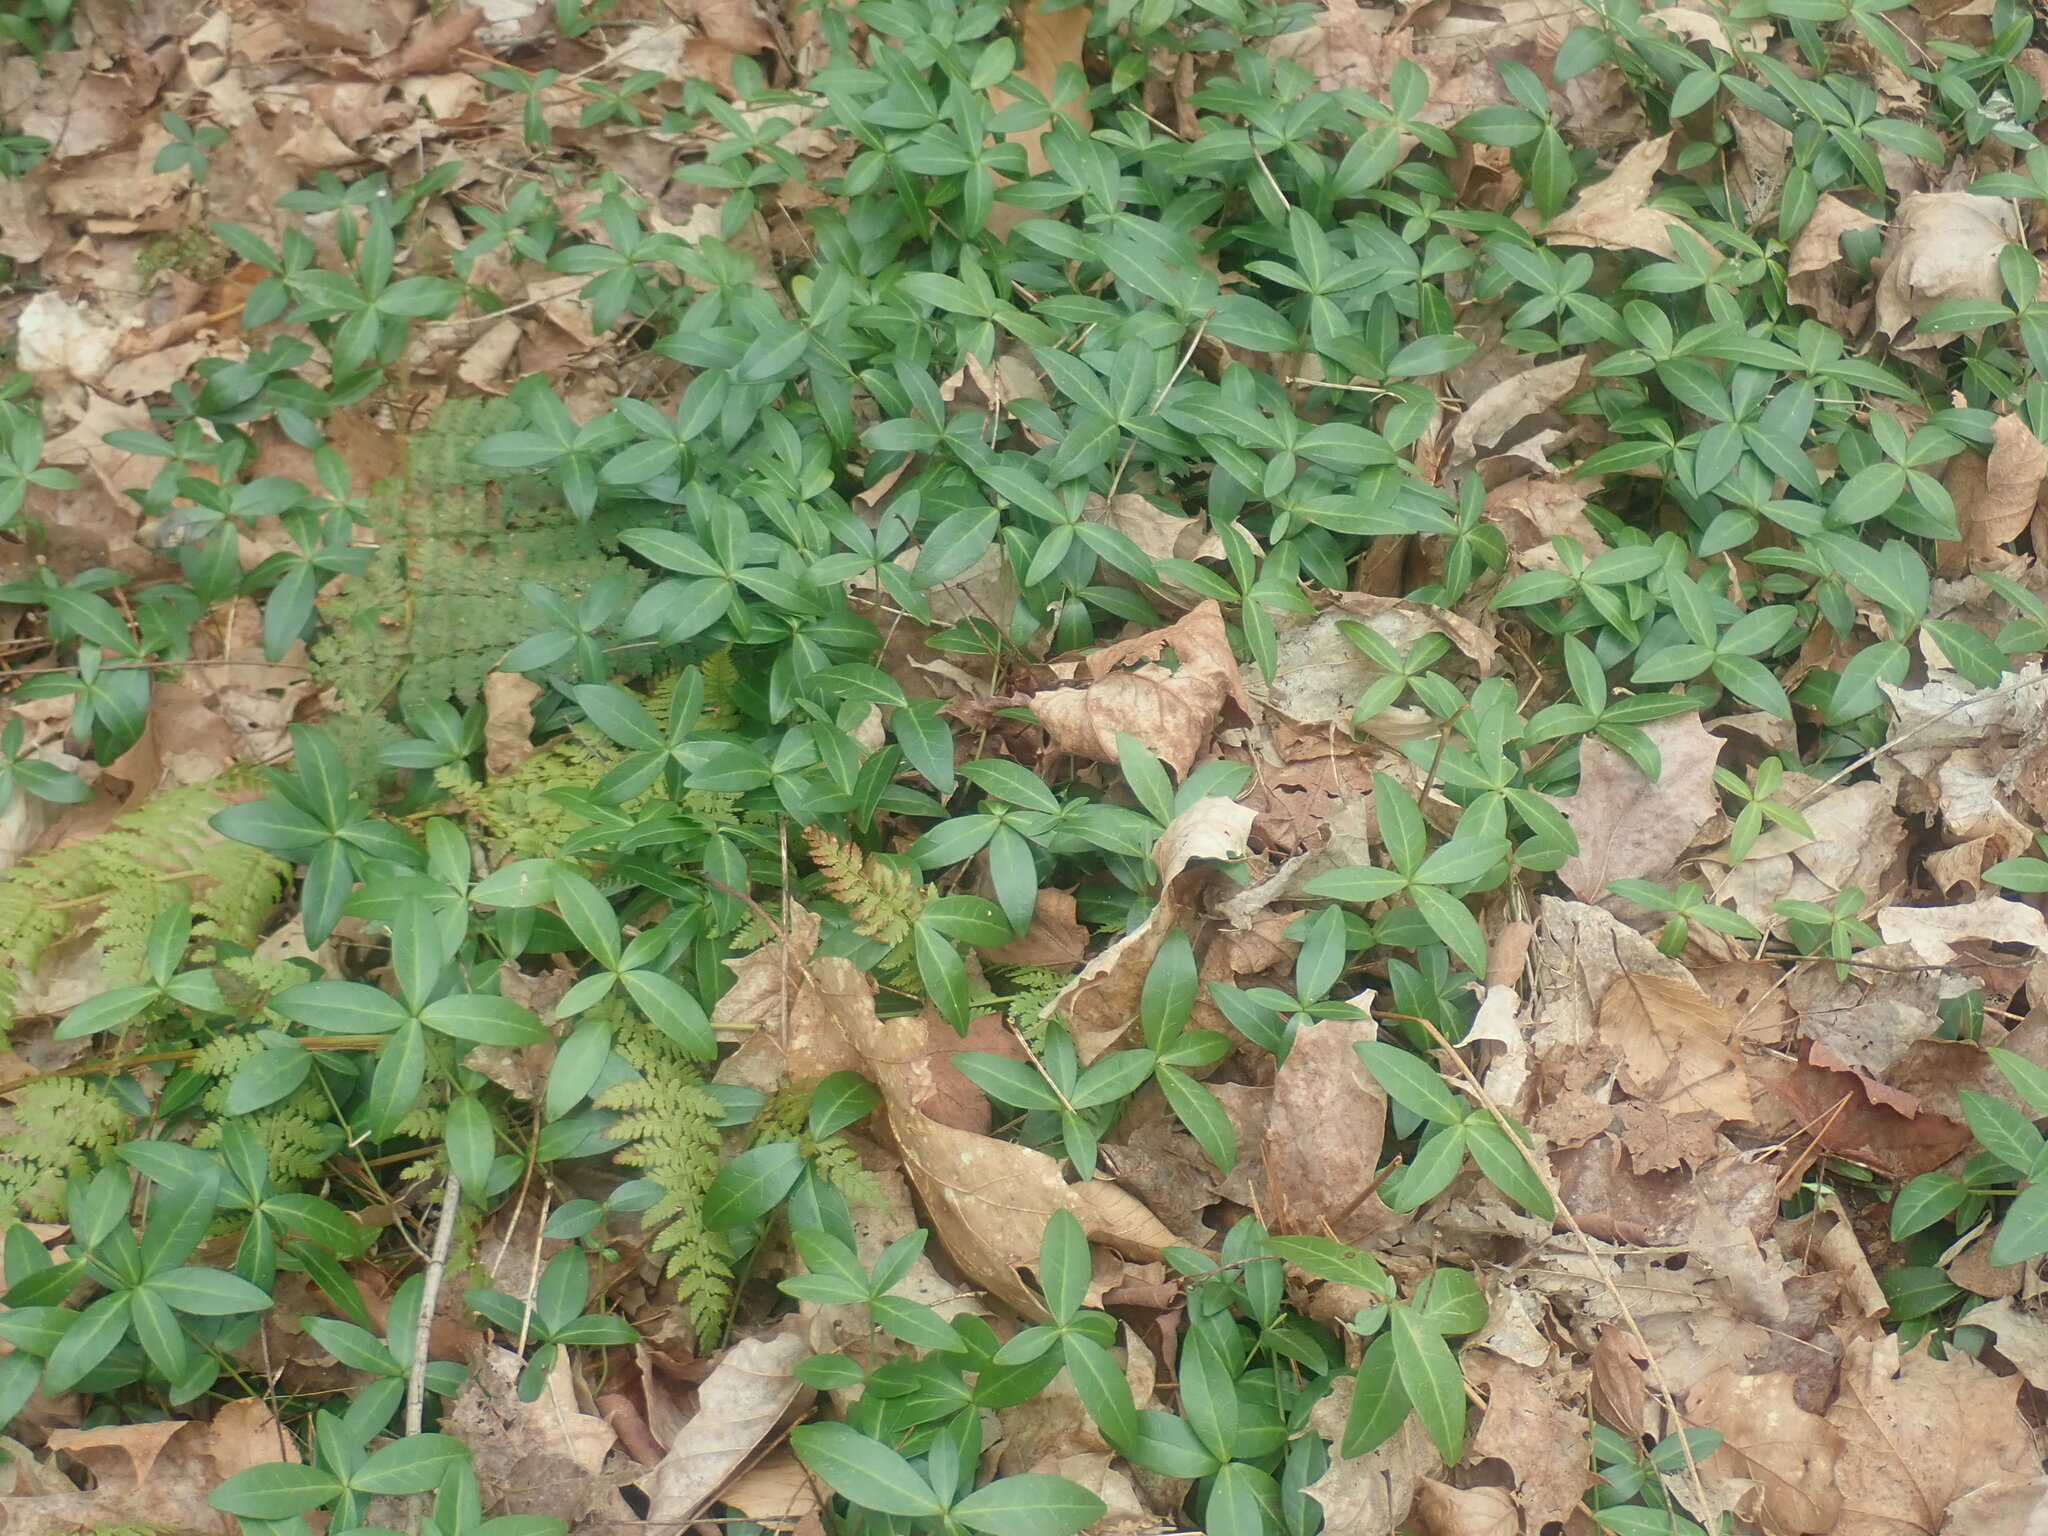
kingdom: Plantae
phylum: Tracheophyta
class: Magnoliopsida
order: Gentianales
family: Apocynaceae
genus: Vinca
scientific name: Vinca minor
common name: Lesser periwinkle
